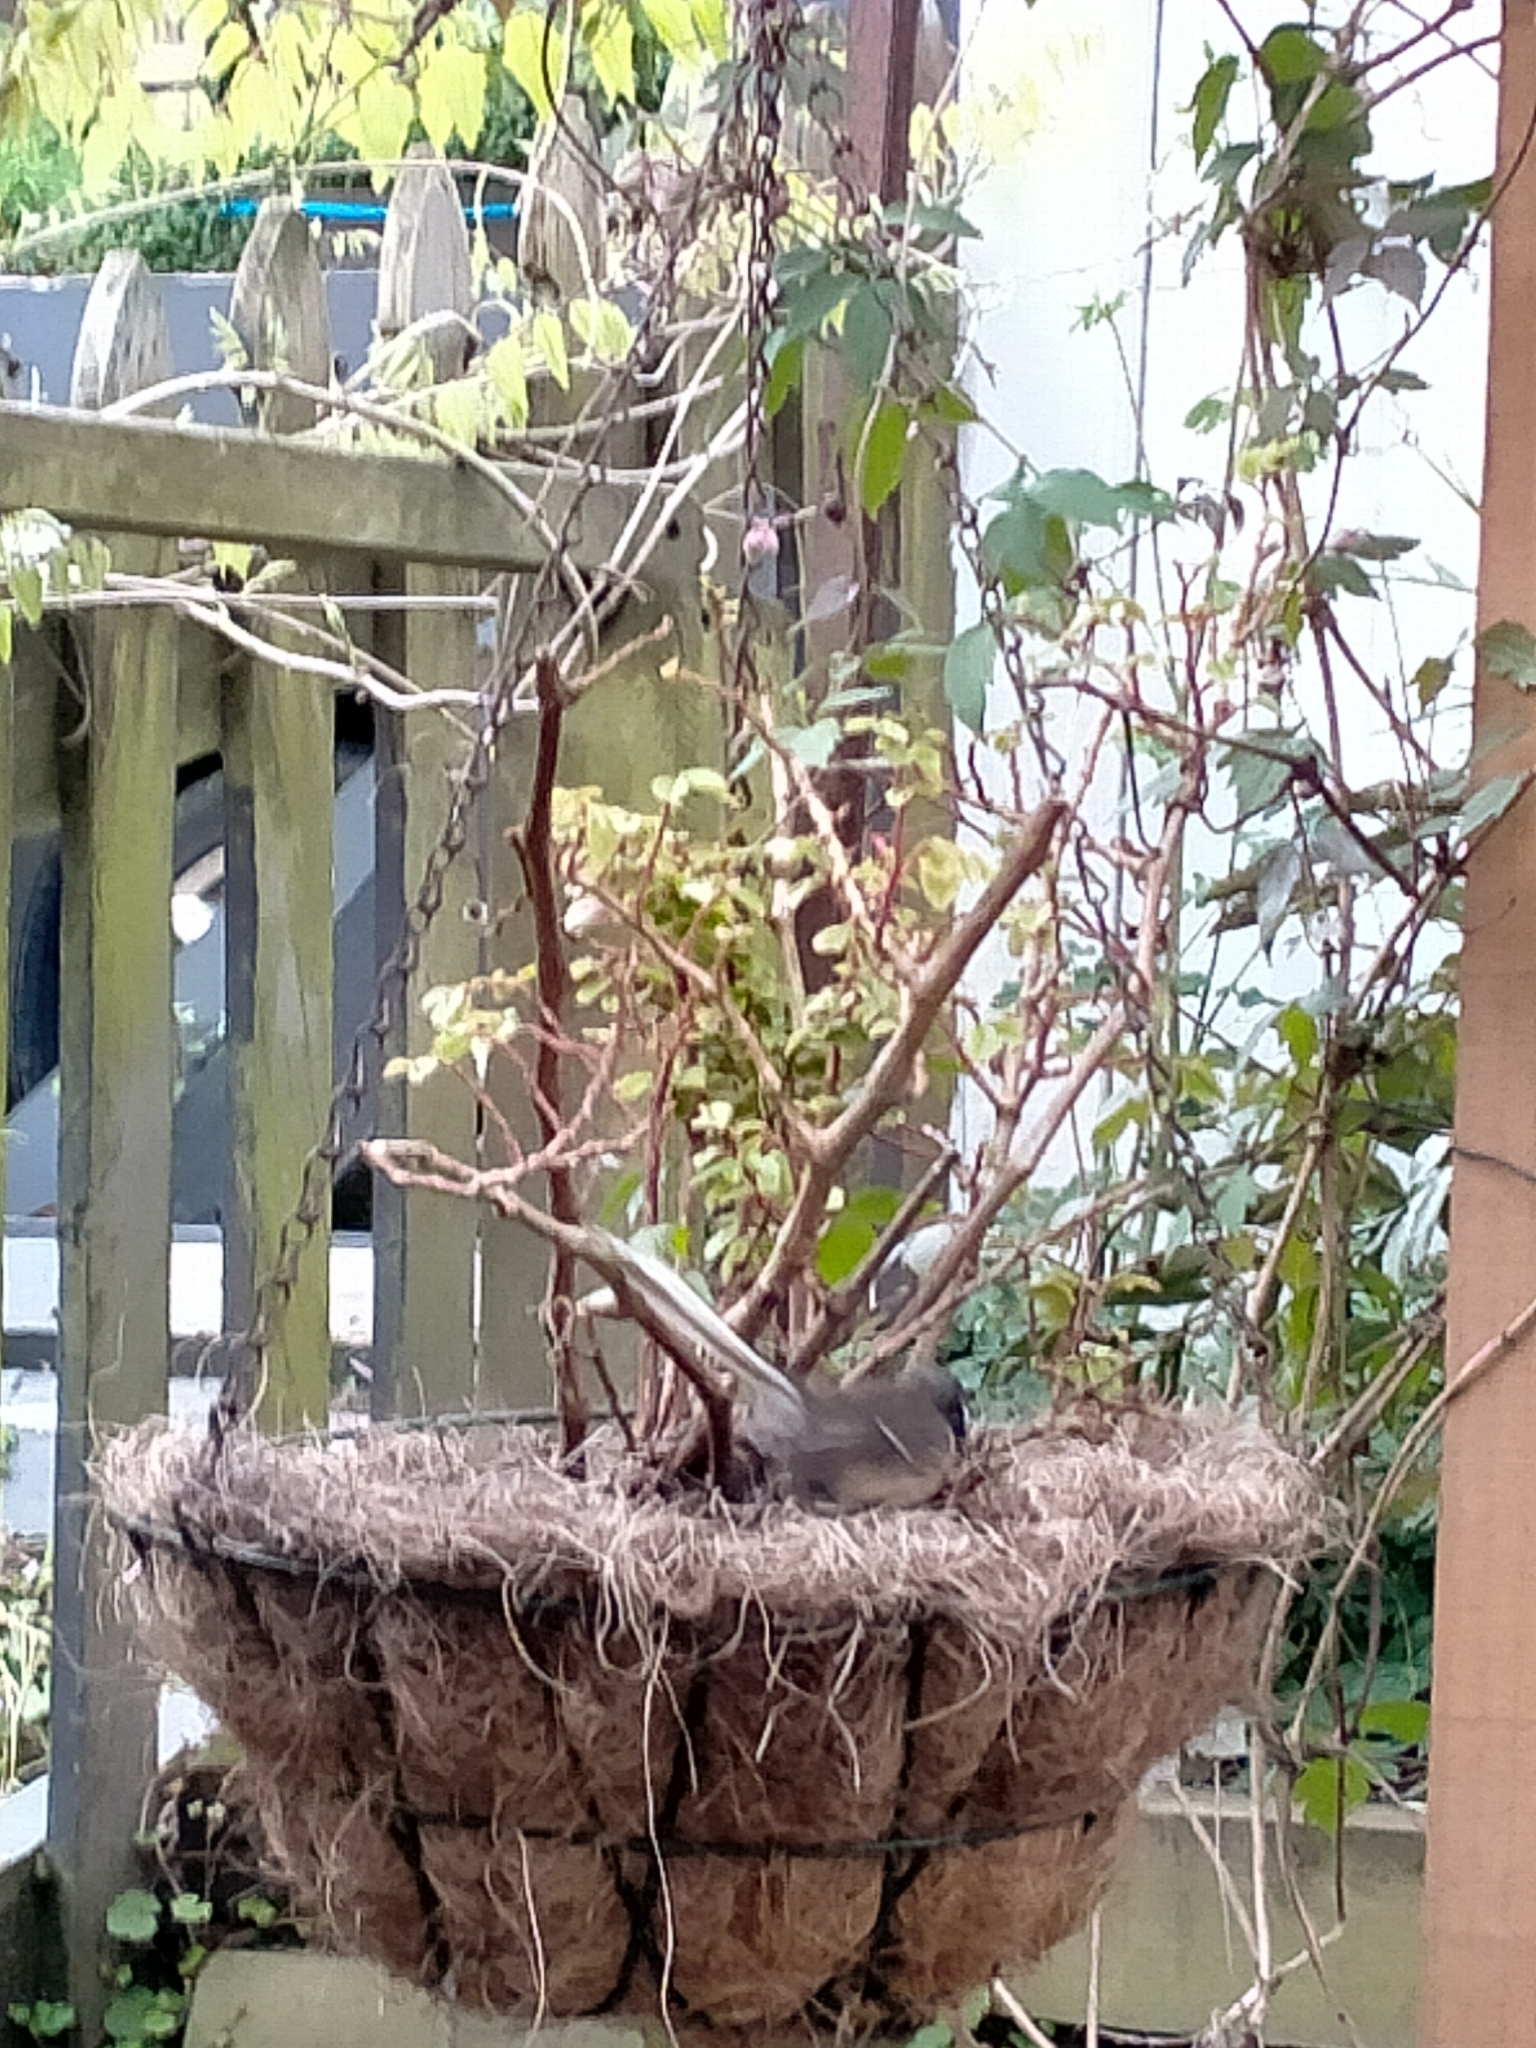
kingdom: Animalia
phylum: Chordata
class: Aves
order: Passeriformes
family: Rhipiduridae
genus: Rhipidura
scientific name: Rhipidura fuliginosa
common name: New zealand fantail
